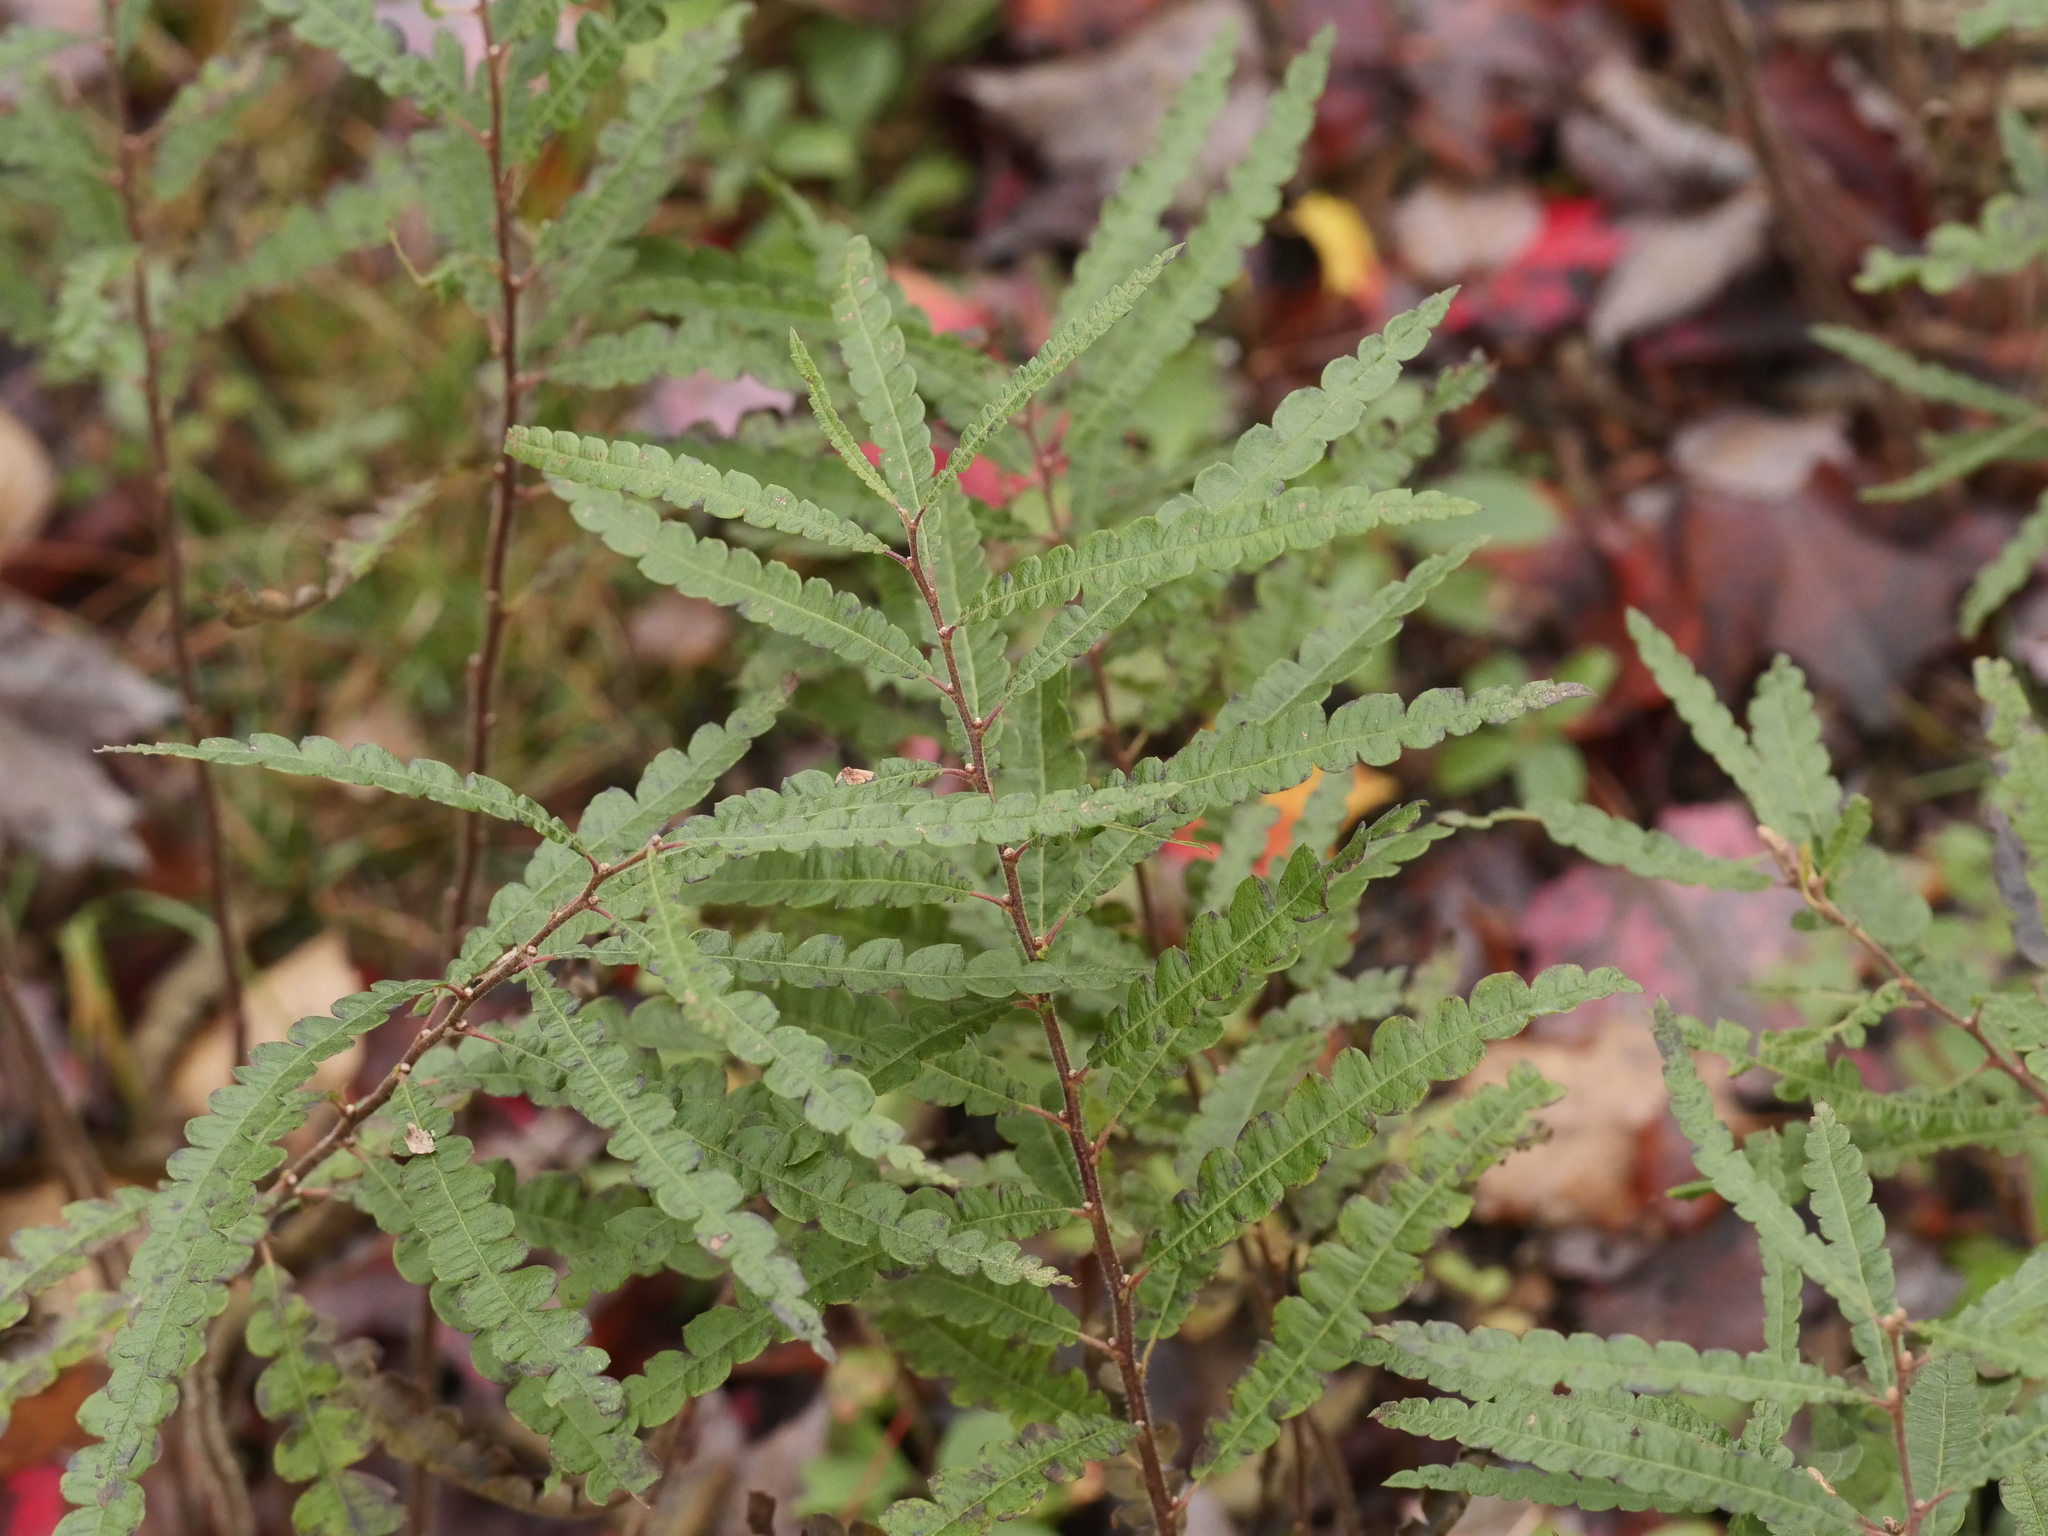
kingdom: Plantae
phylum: Tracheophyta
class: Magnoliopsida
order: Fagales
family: Myricaceae
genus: Comptonia
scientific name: Comptonia peregrina
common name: Sweet-fern
